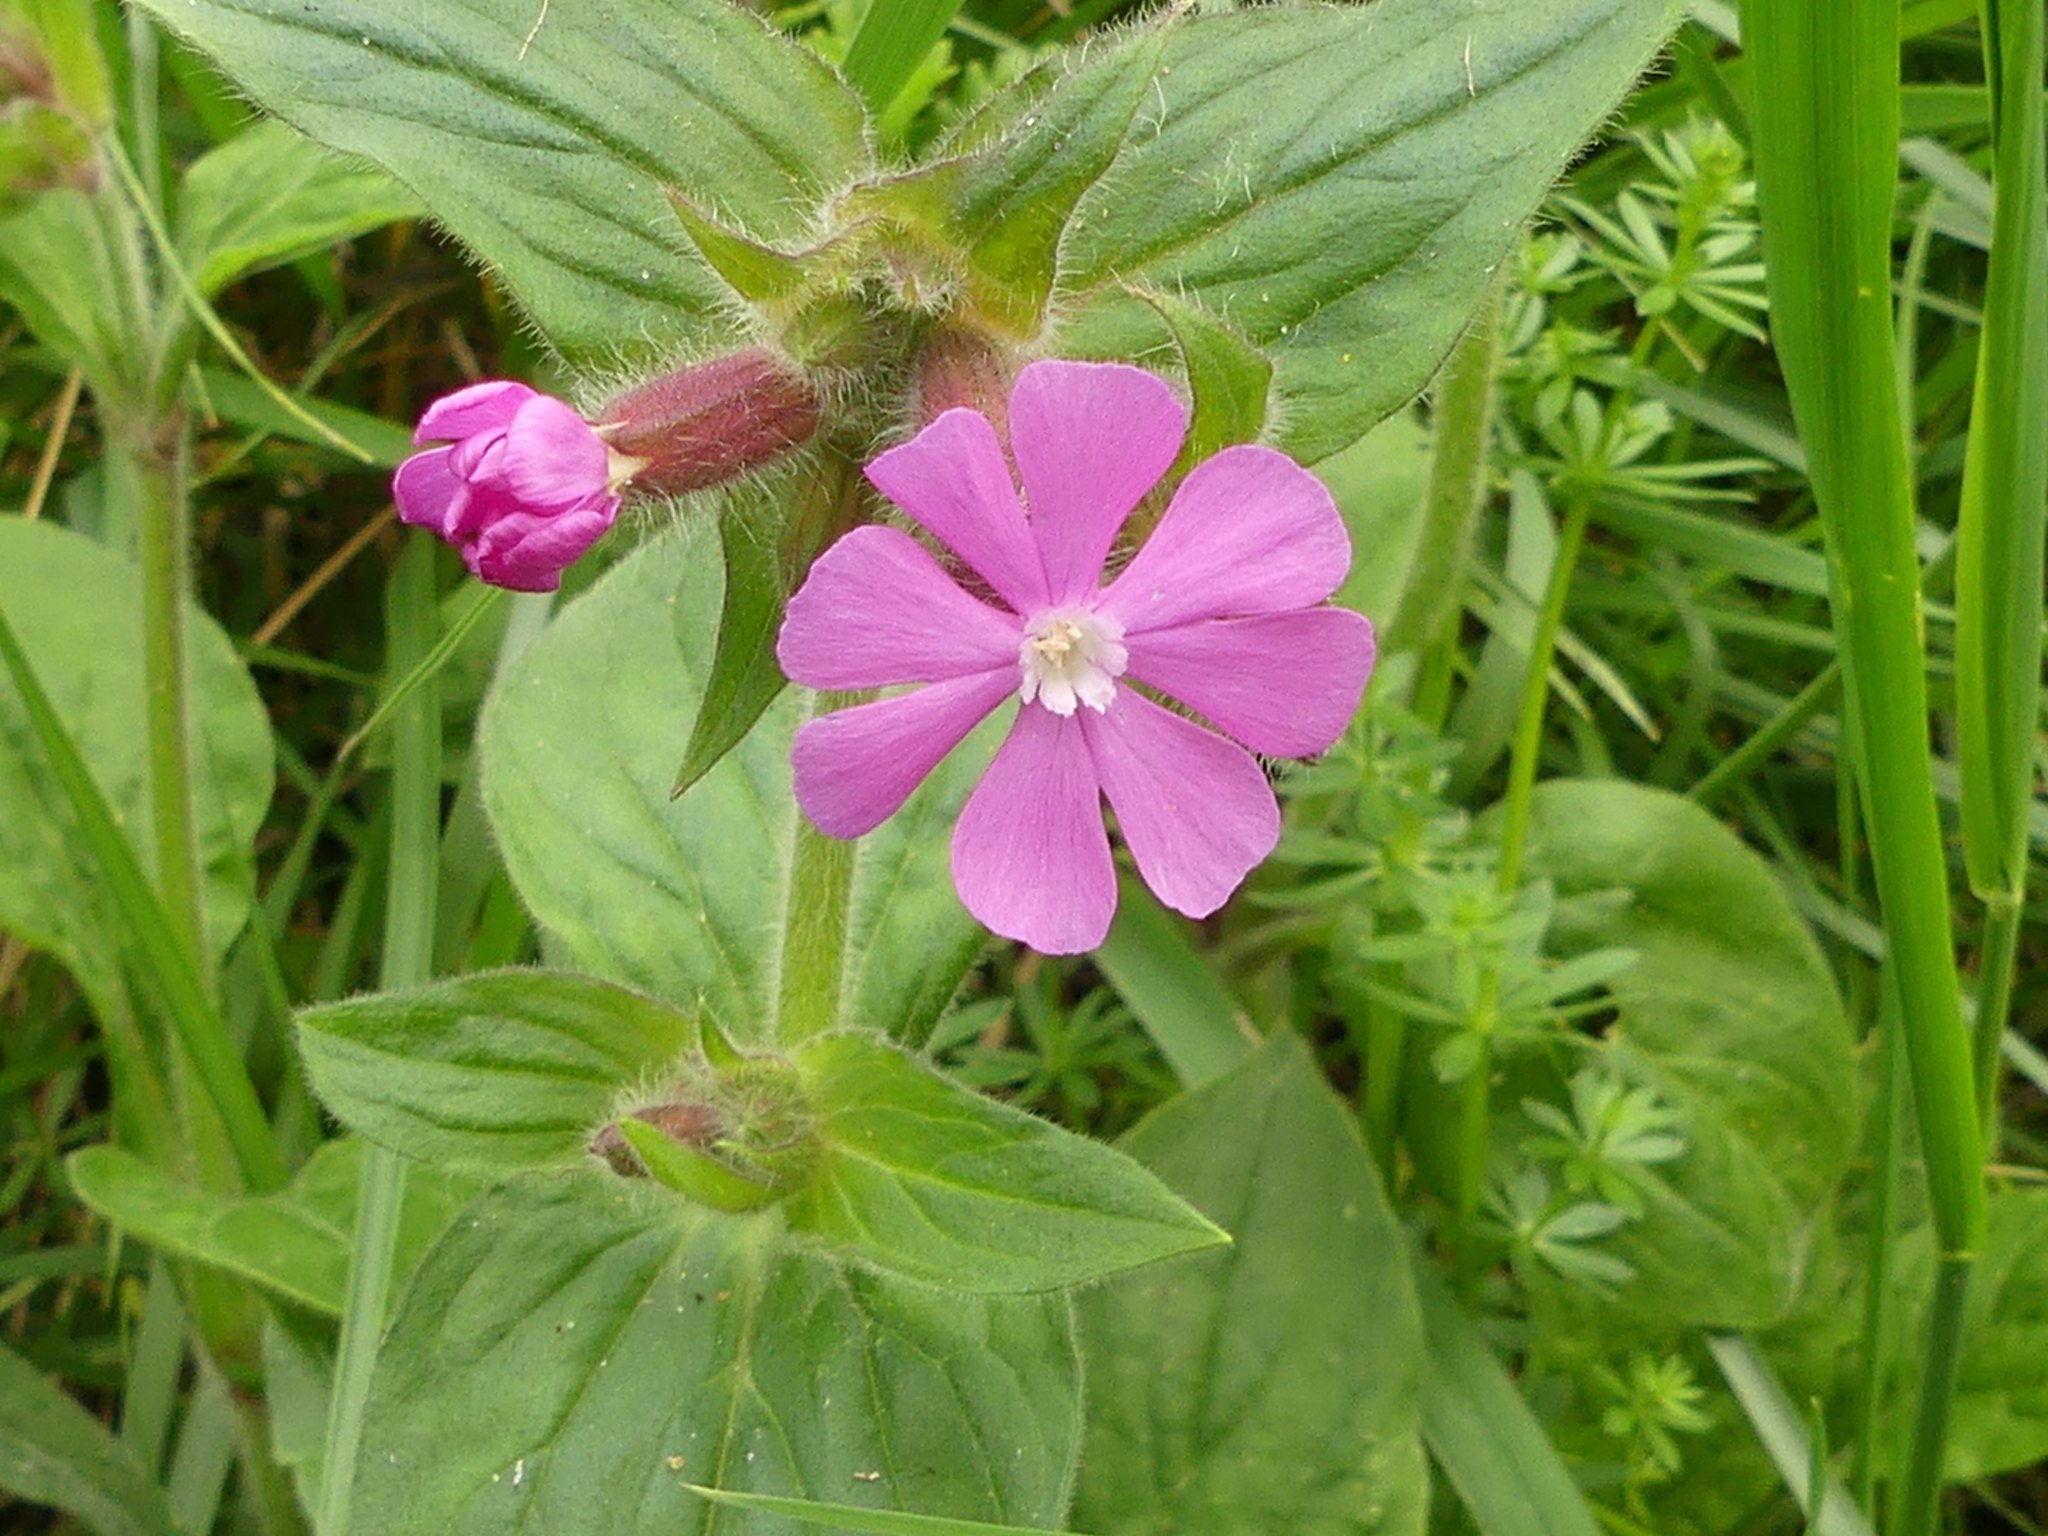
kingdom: Plantae
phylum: Tracheophyta
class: Magnoliopsida
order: Caryophyllales
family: Caryophyllaceae
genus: Silene
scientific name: Silene dioica
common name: Red campion
